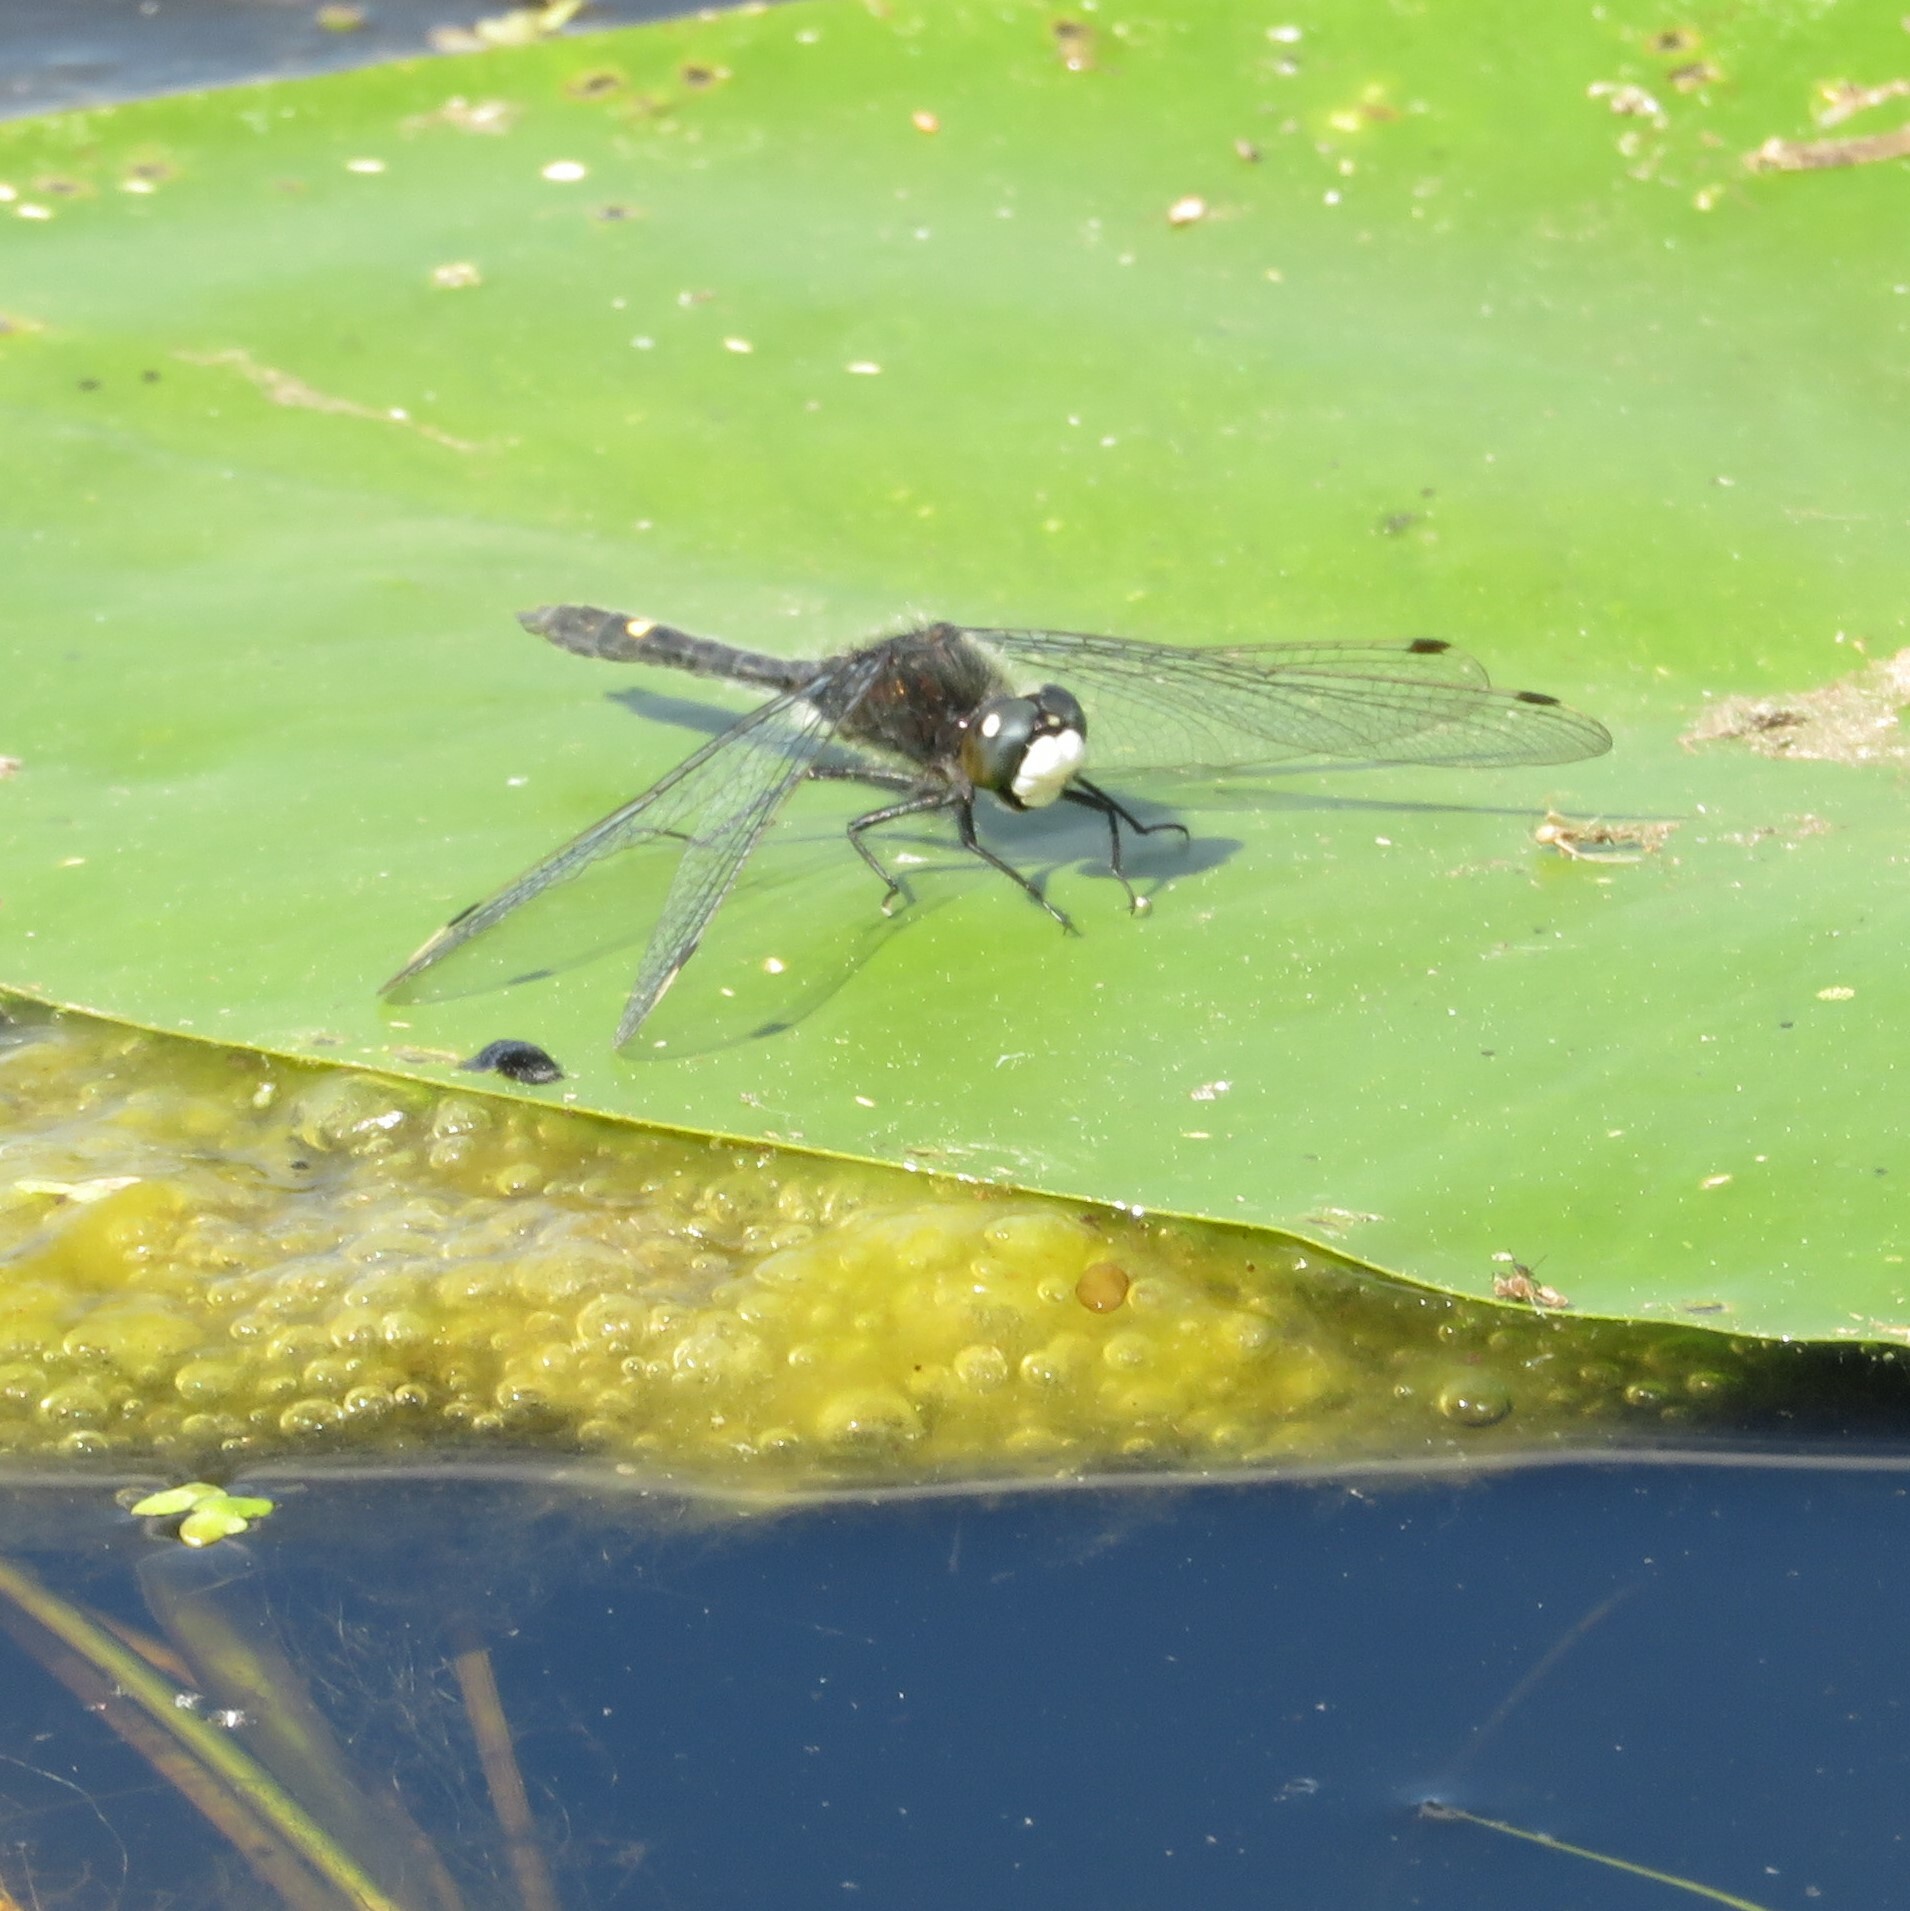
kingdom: Animalia
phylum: Arthropoda
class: Insecta
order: Odonata
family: Libellulidae
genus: Leucorrhinia
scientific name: Leucorrhinia intacta
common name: Dot-tailed whiteface
